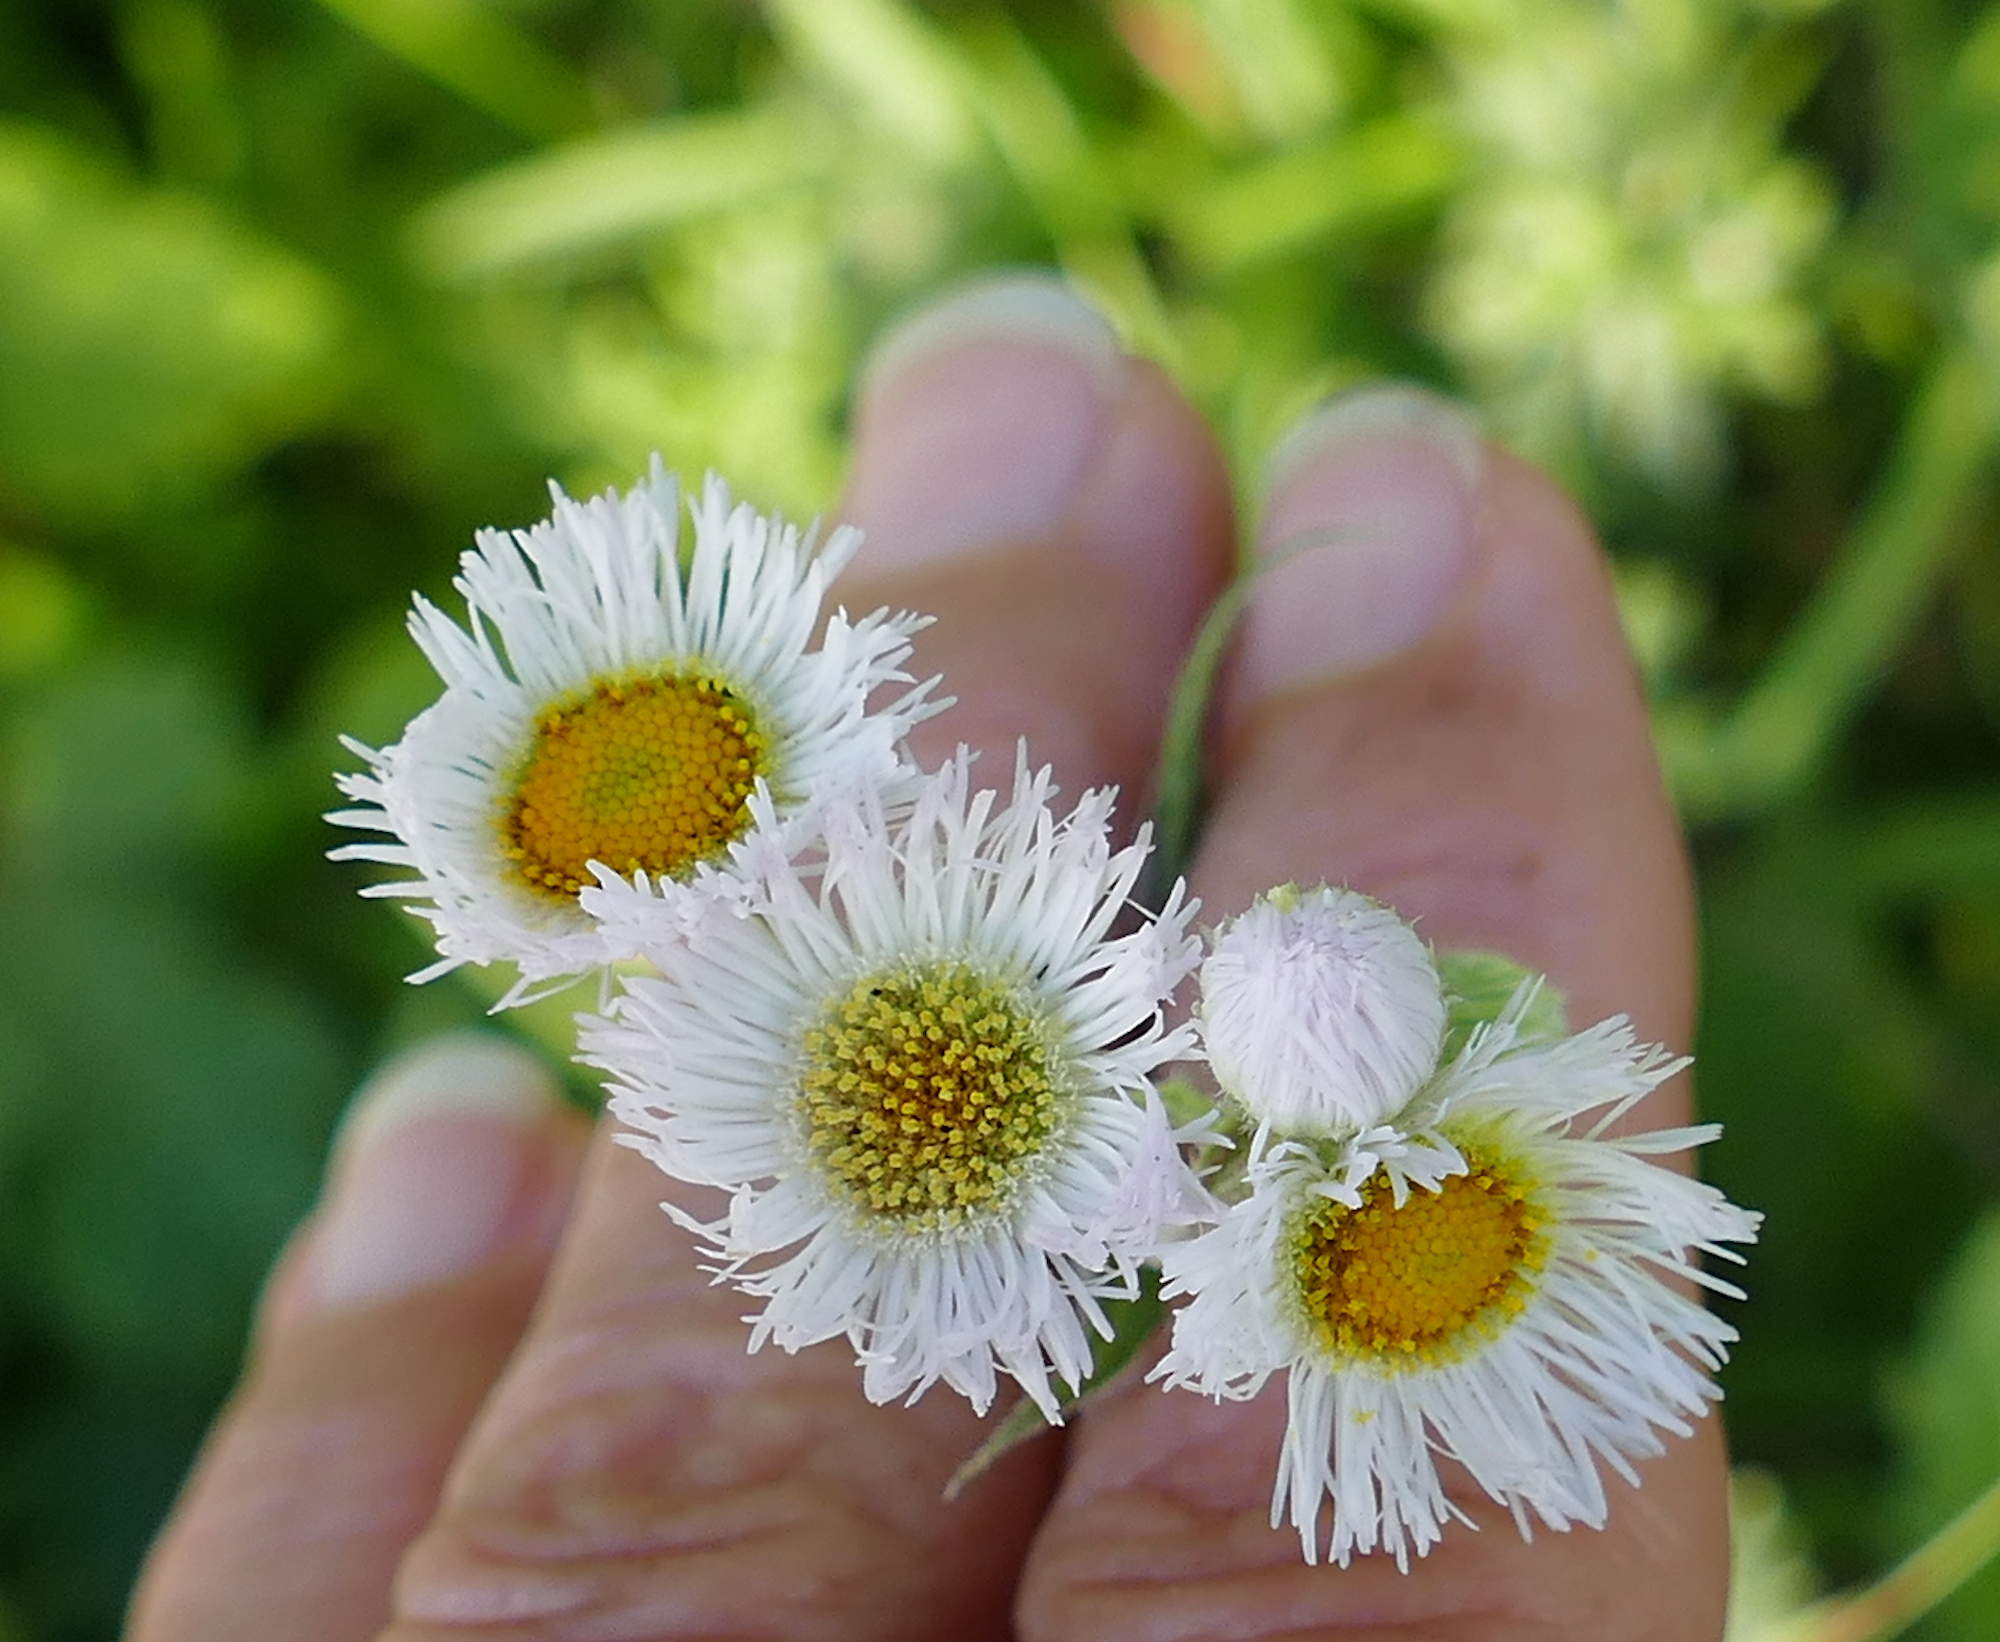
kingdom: Plantae
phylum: Tracheophyta
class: Magnoliopsida
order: Asterales
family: Asteraceae
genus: Erigeron
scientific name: Erigeron philadelphicus
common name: Robin's-plantain
